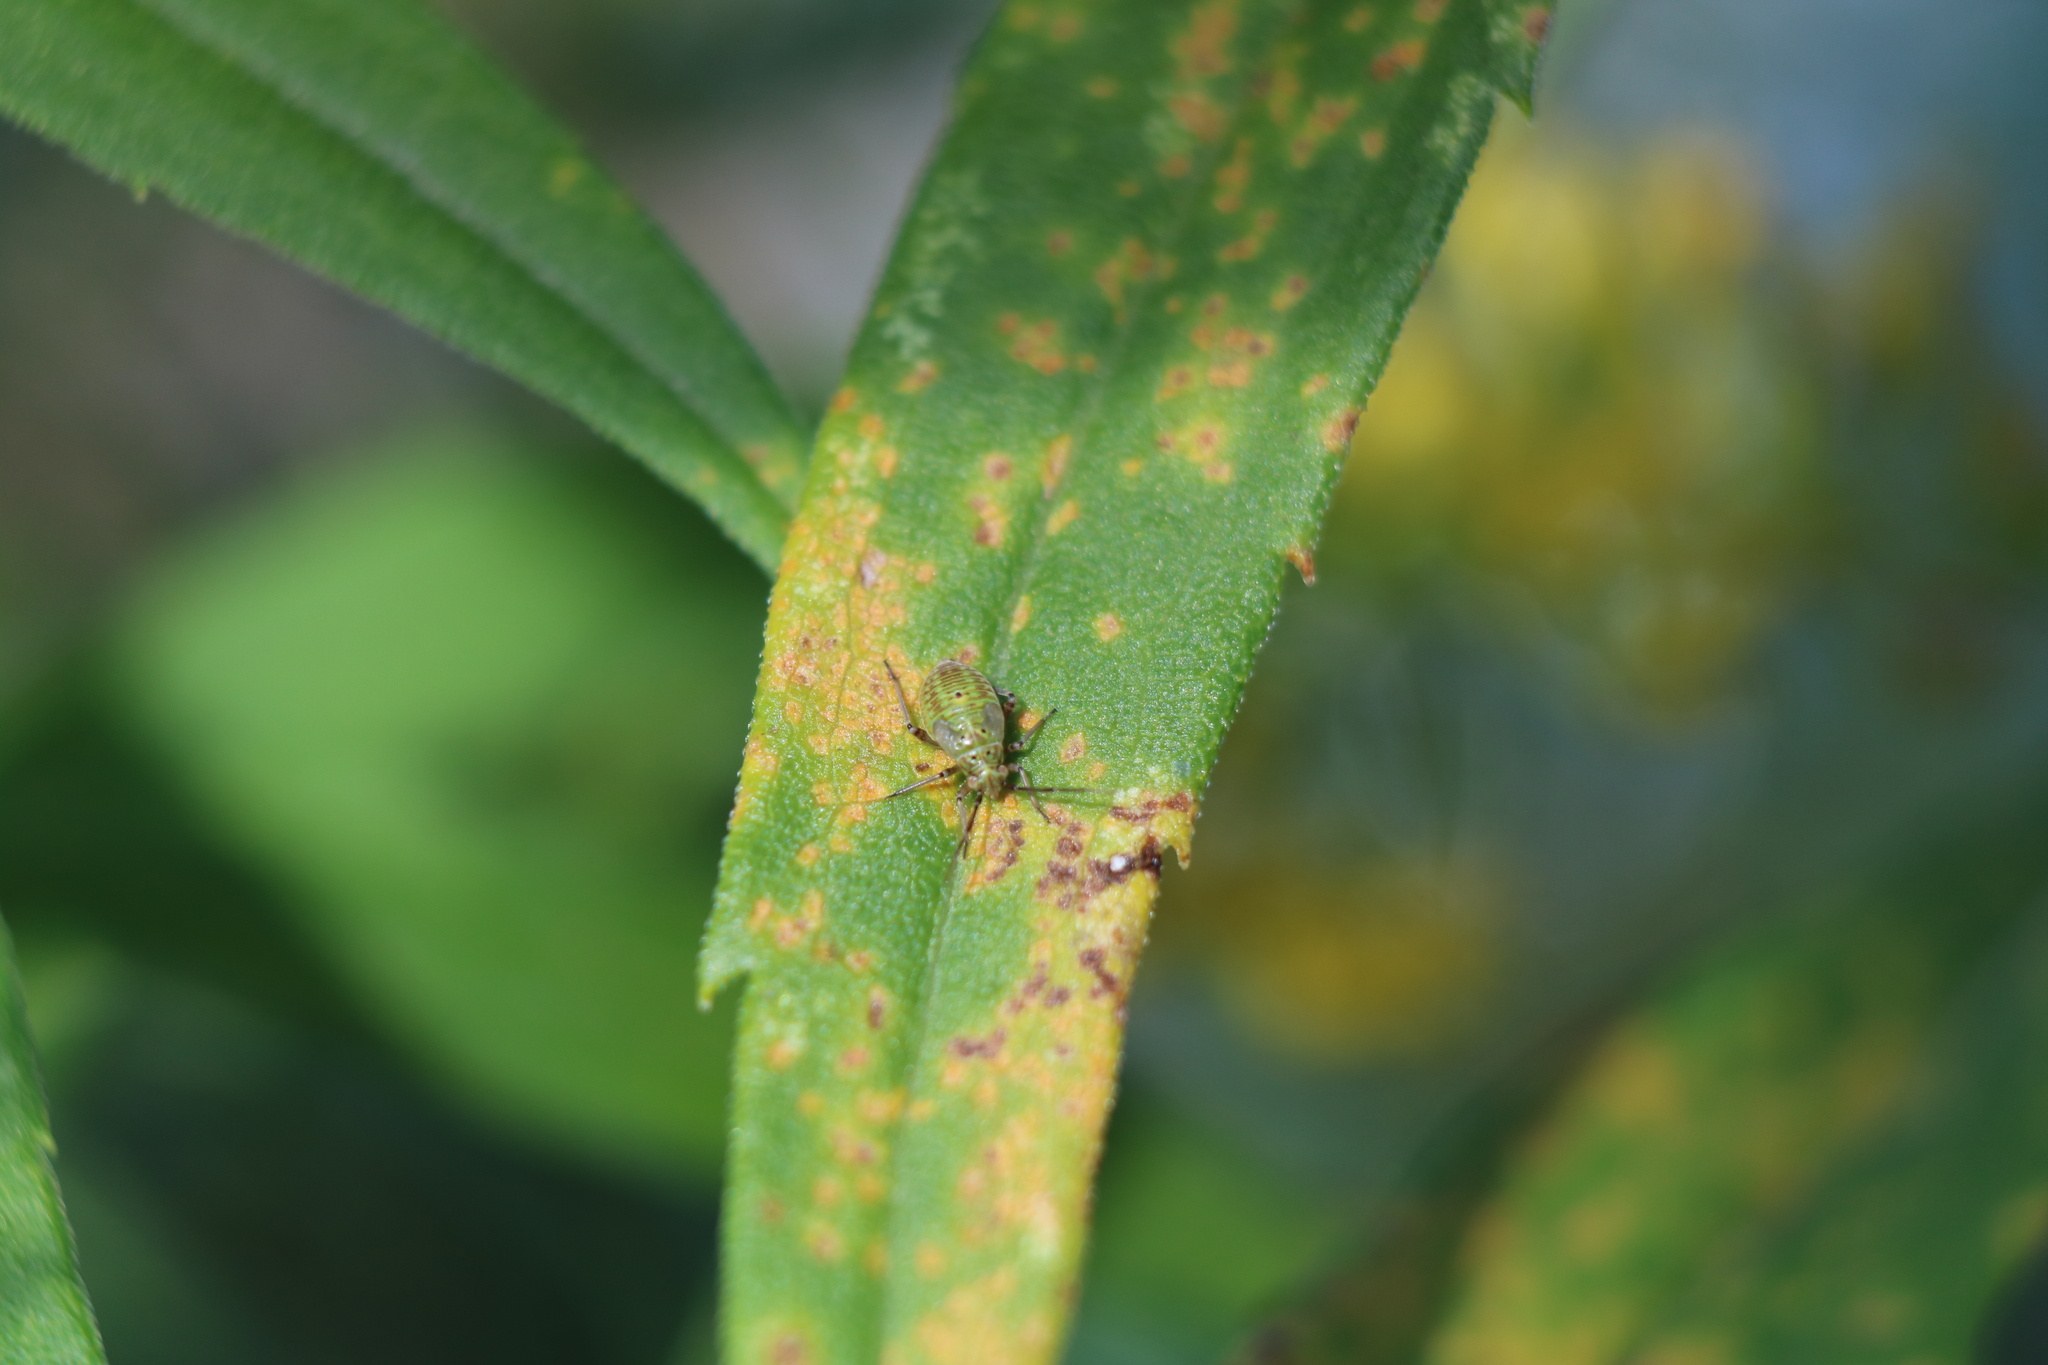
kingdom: Animalia
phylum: Arthropoda
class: Insecta
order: Hemiptera
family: Miridae
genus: Lygus
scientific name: Lygus lineolaris
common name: North american tarnished plant bug
